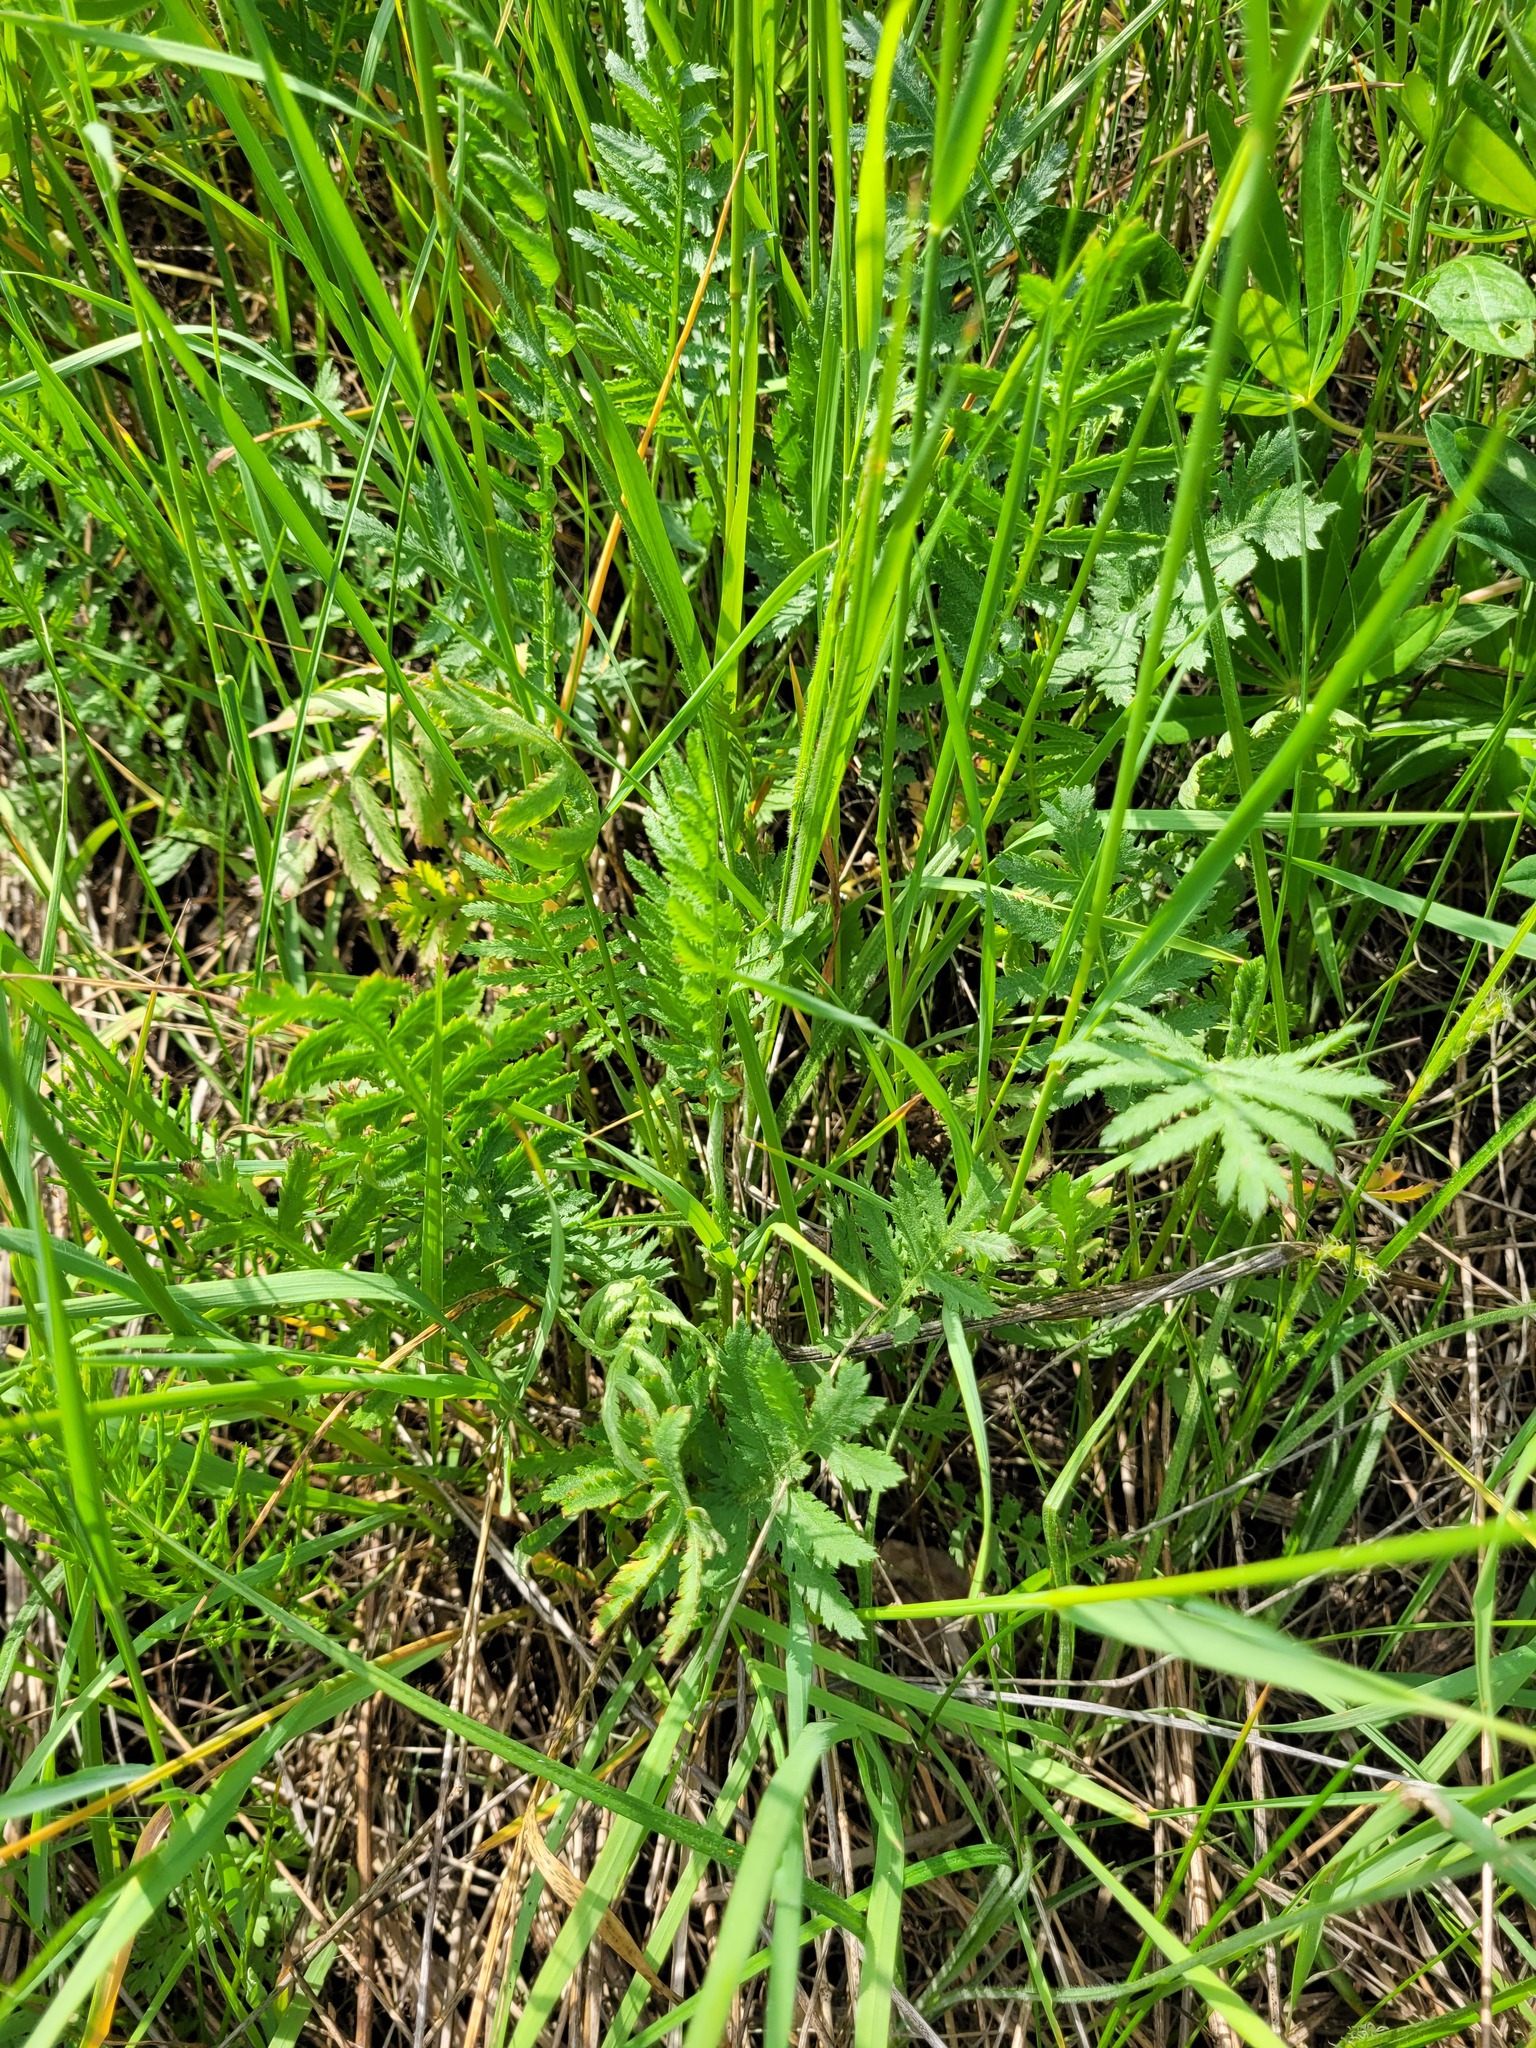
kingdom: Plantae
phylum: Tracheophyta
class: Magnoliopsida
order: Asterales
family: Asteraceae
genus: Tanacetum
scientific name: Tanacetum vulgare
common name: Common tansy
